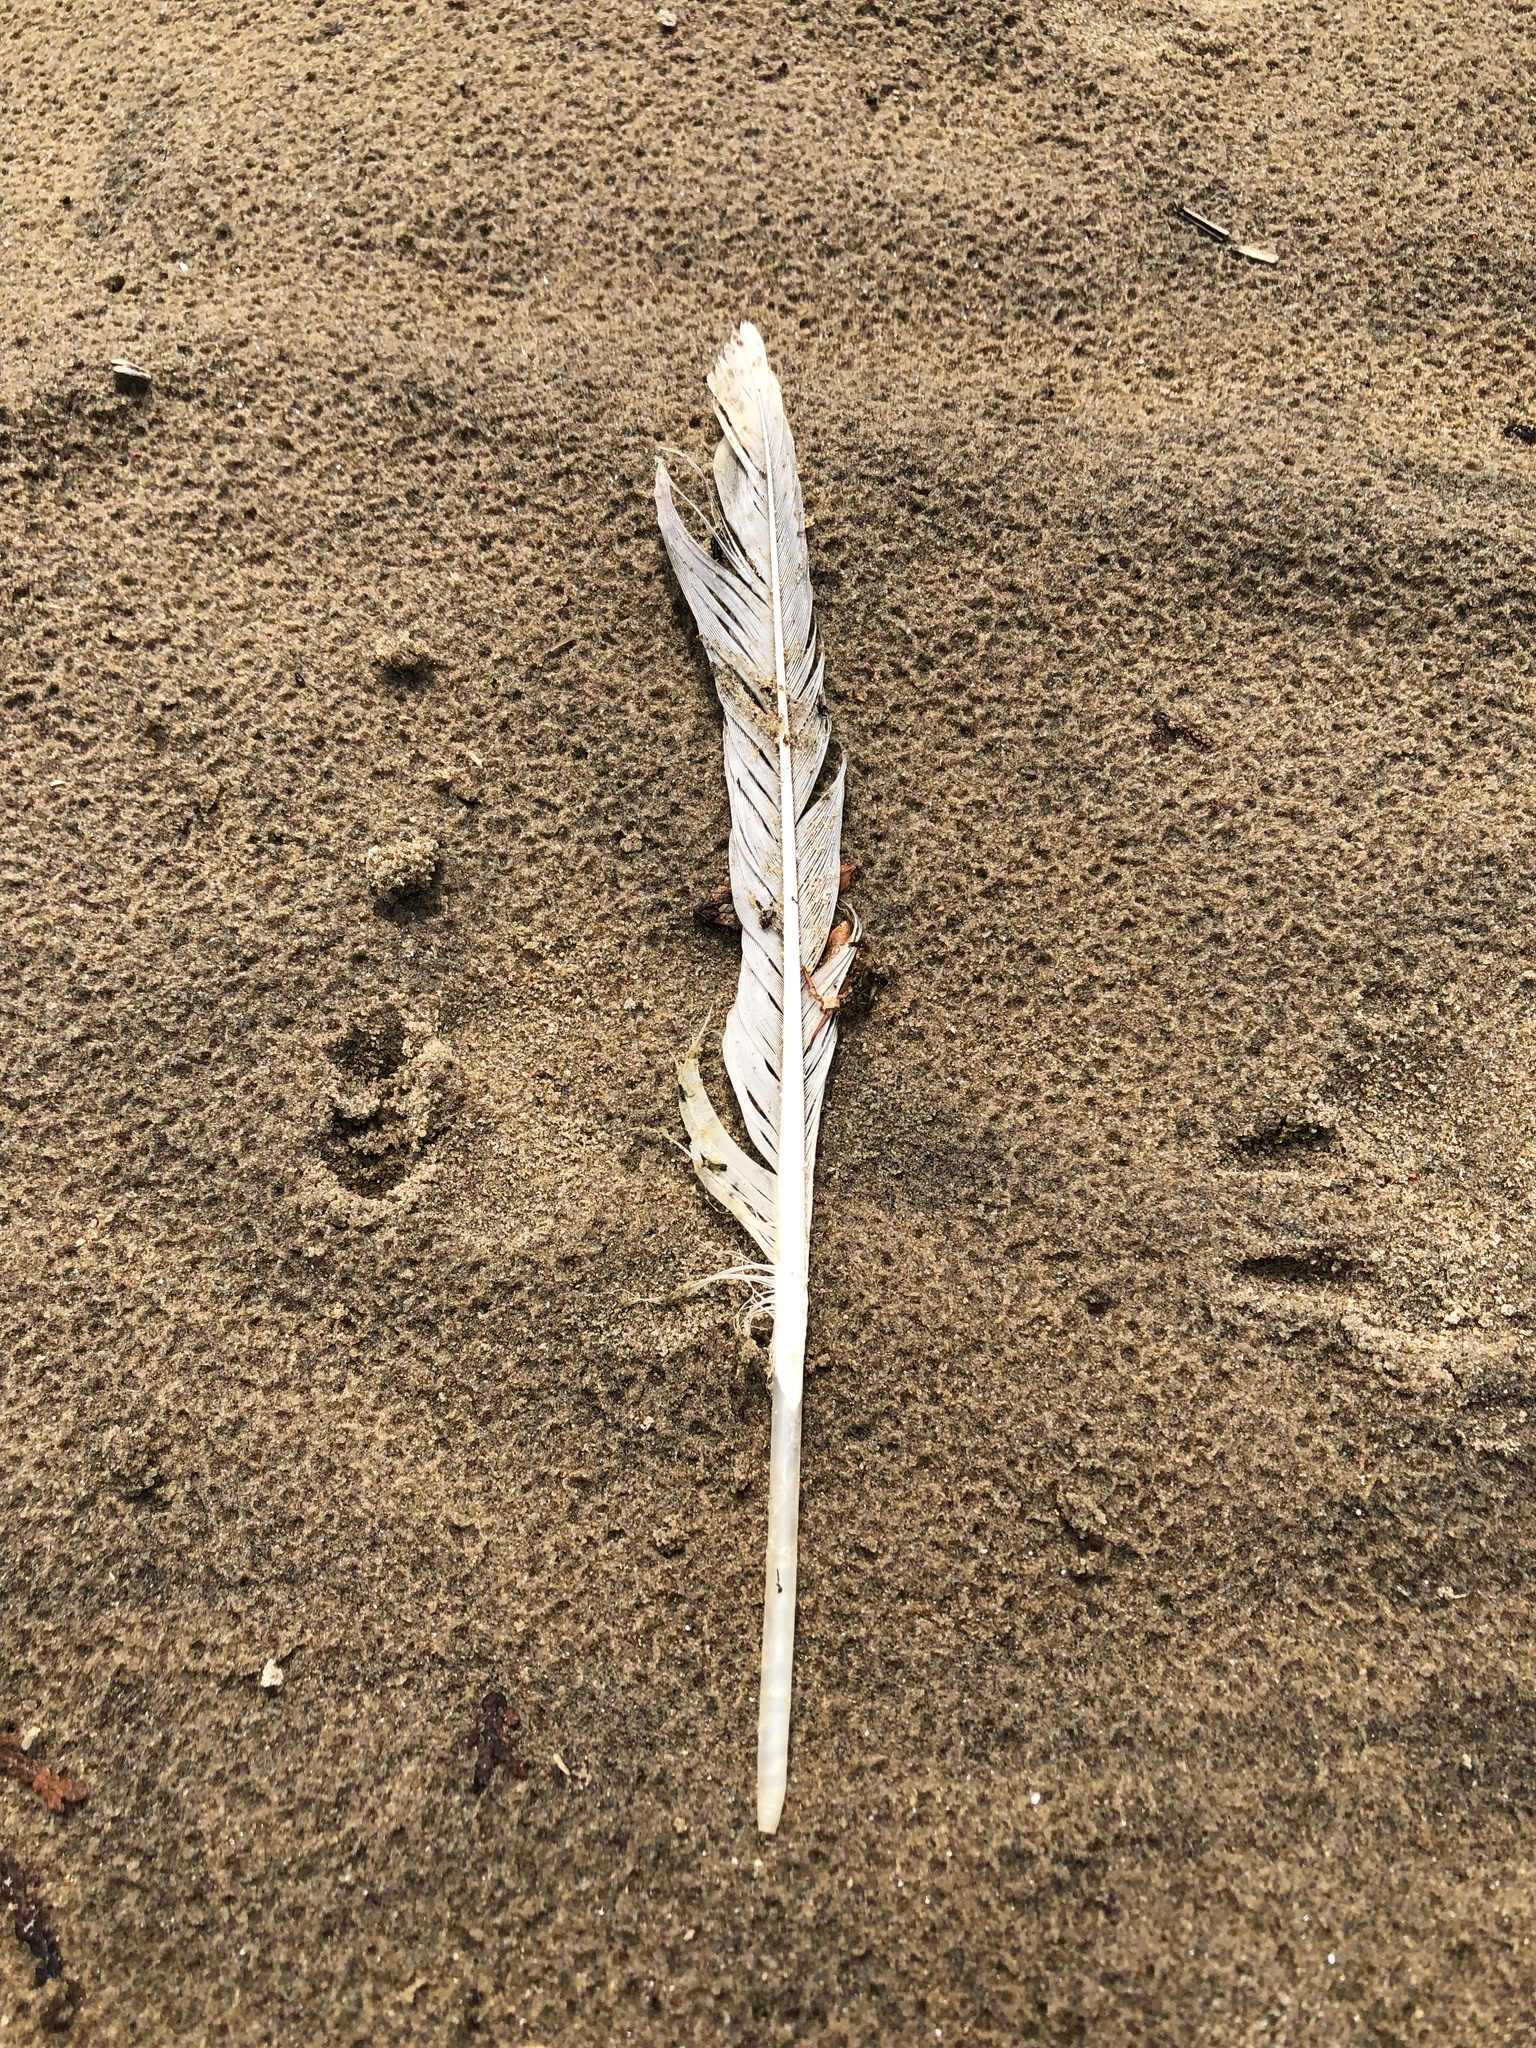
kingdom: Animalia
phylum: Chordata
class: Aves
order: Charadriiformes
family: Laridae
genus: Larus
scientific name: Larus delawarensis
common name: Ring-billed gull
